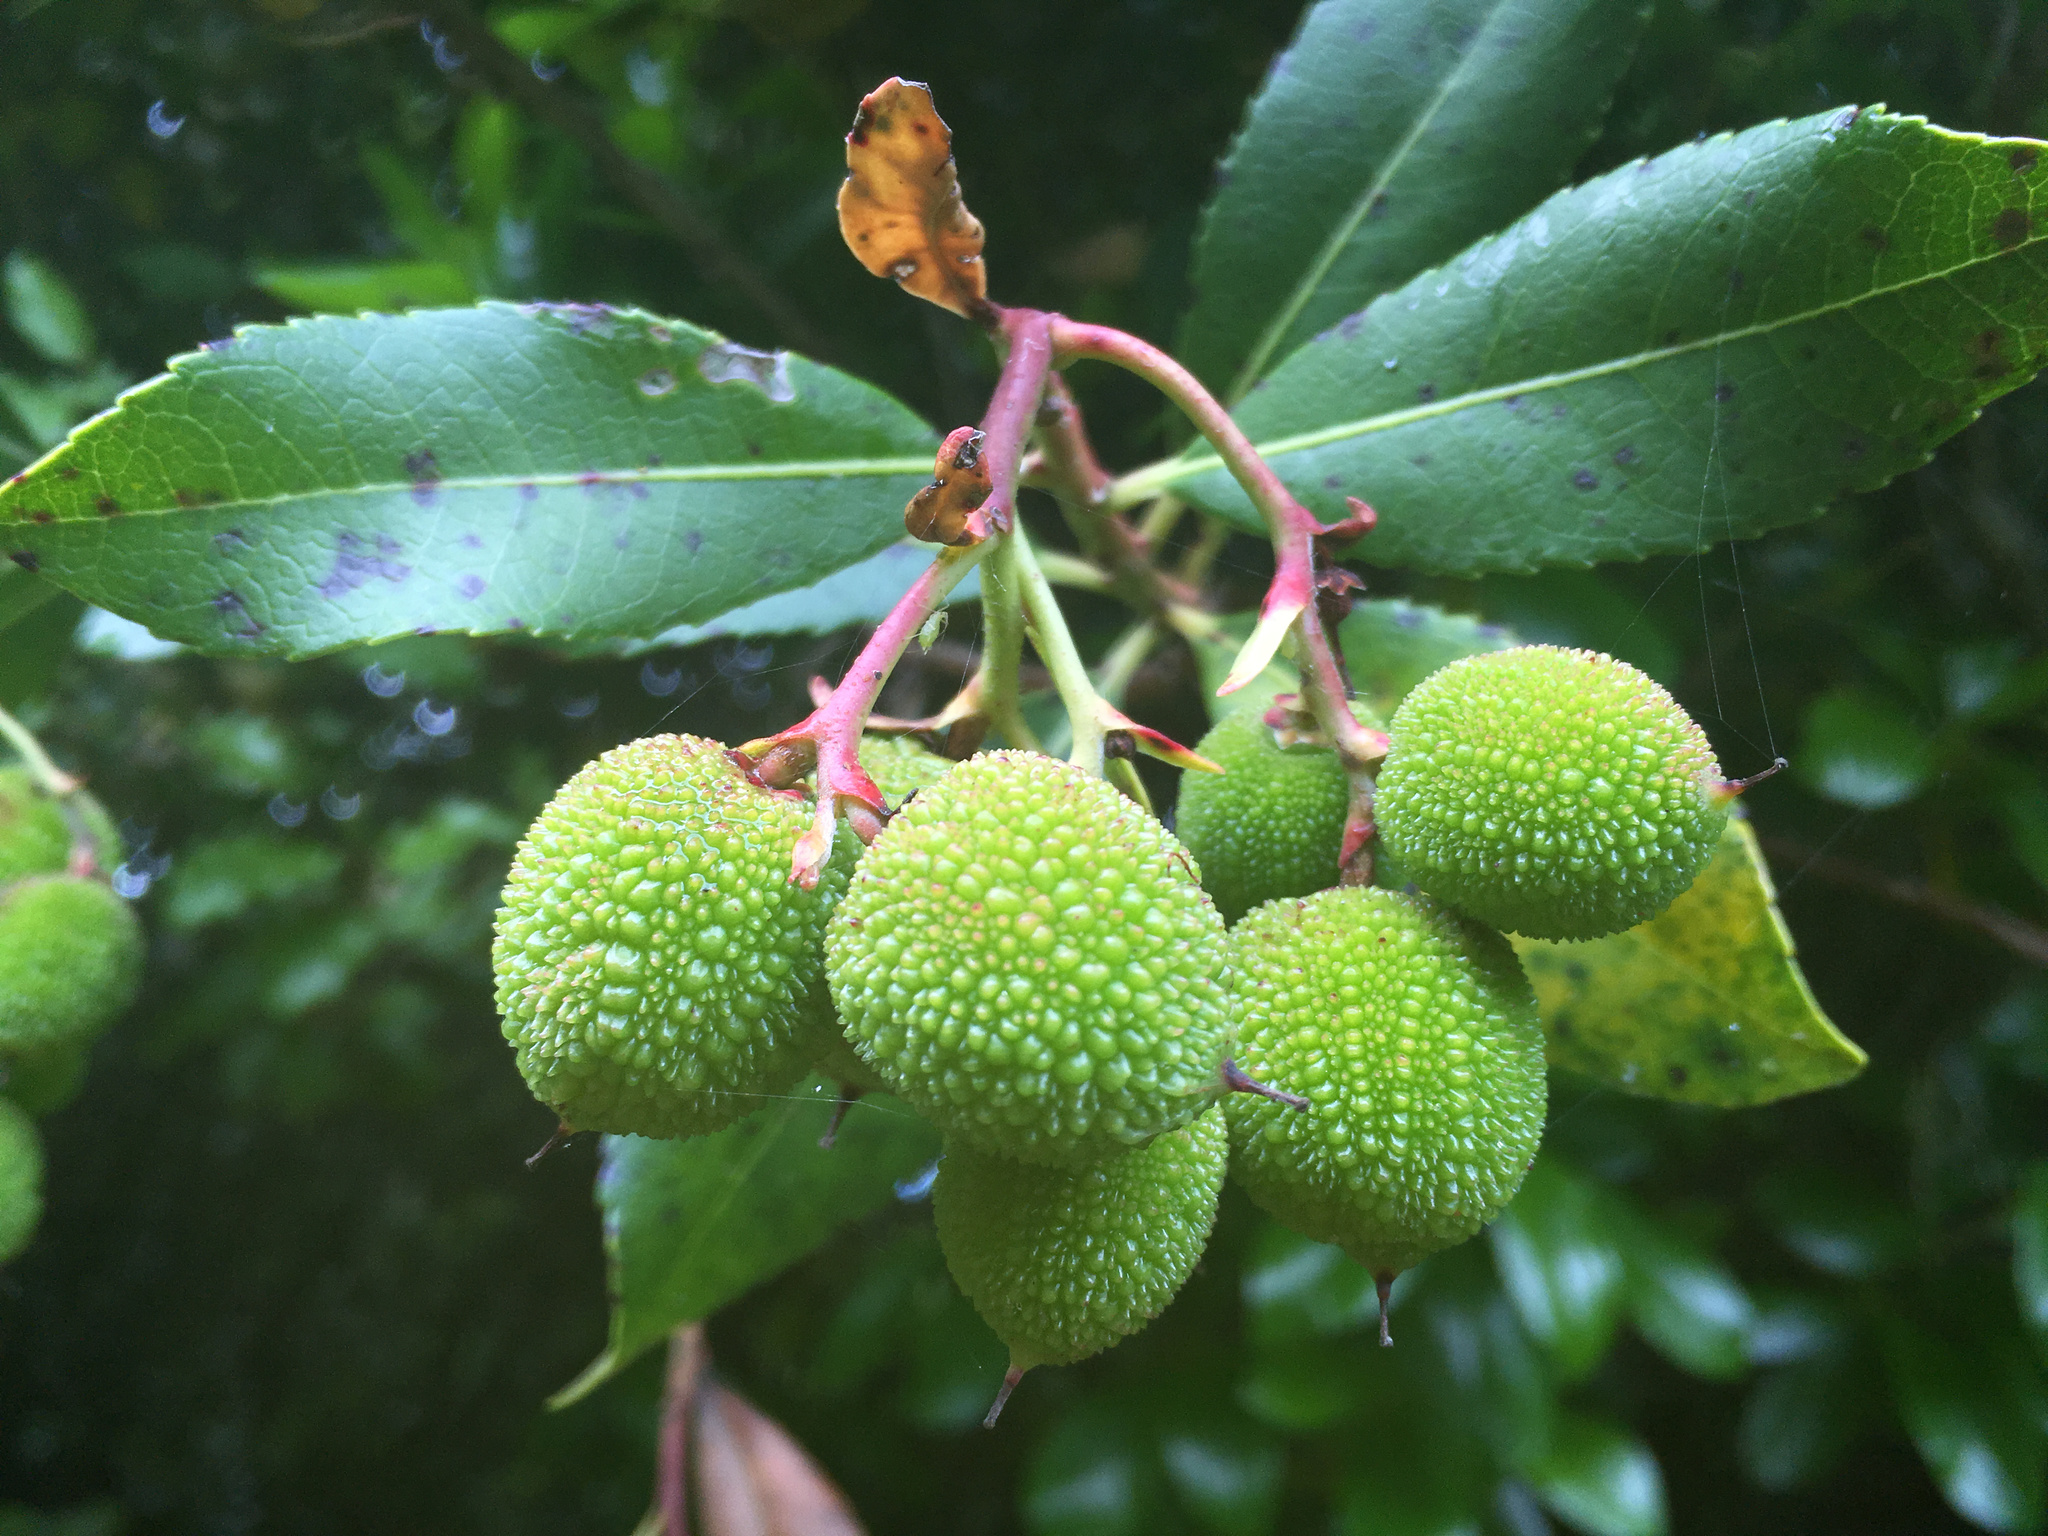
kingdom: Plantae
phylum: Tracheophyta
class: Magnoliopsida
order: Ericales
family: Ericaceae
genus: Arbutus
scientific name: Arbutus unedo
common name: Strawberry-tree
